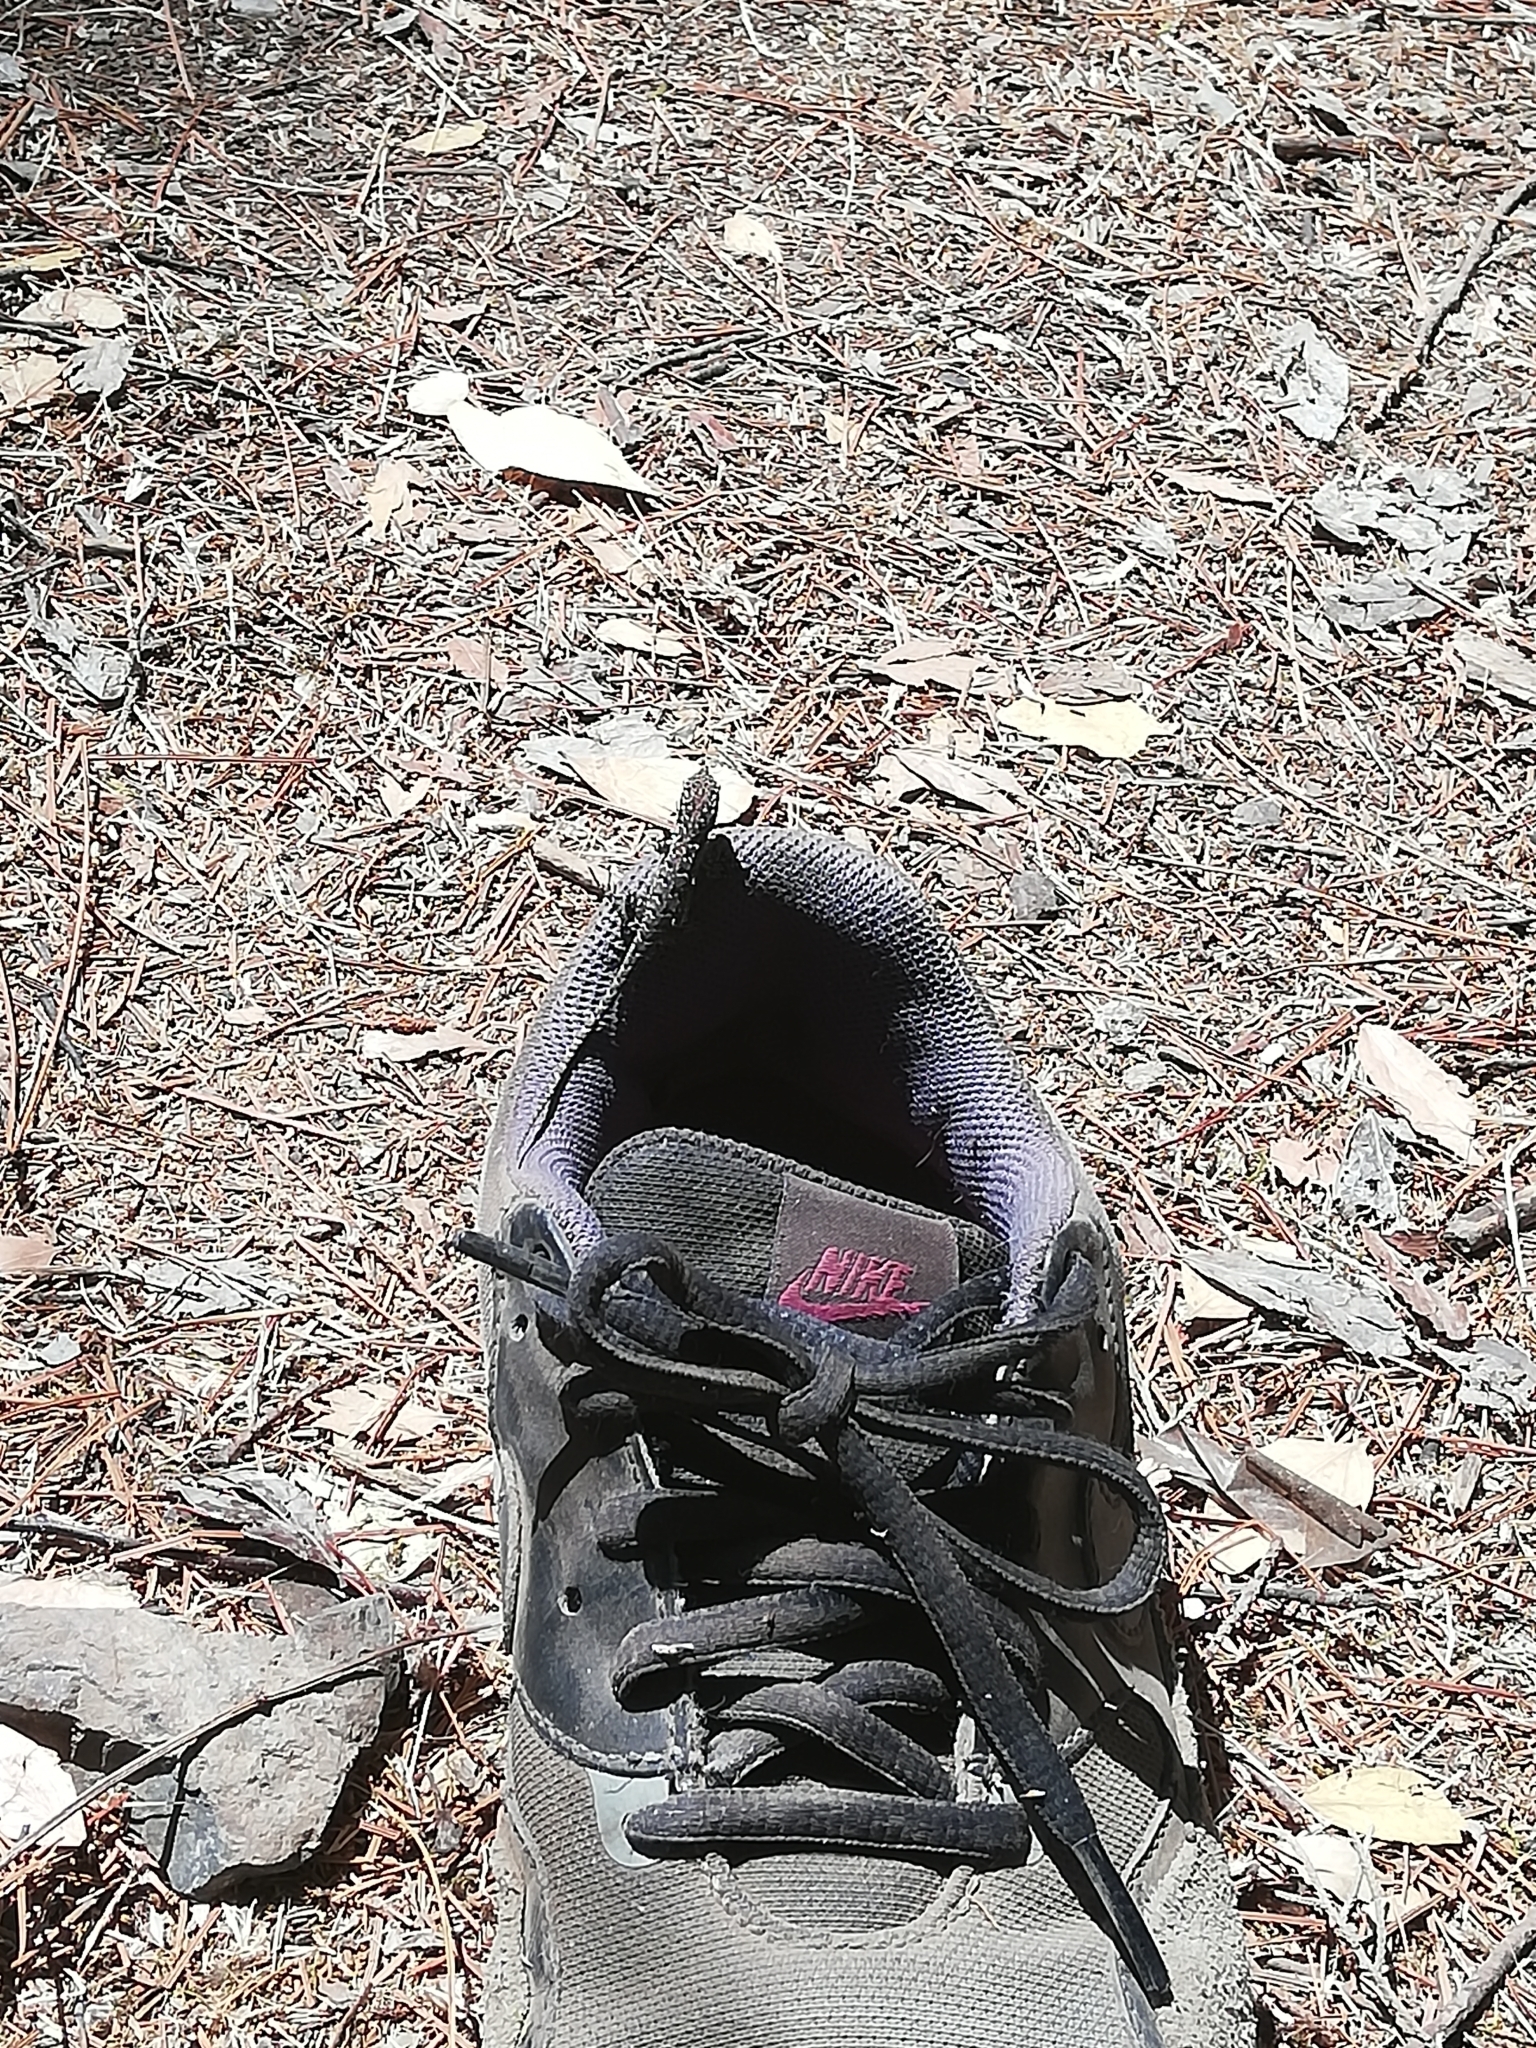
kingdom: Animalia
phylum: Chordata
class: Squamata
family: Liolaemidae
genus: Liolaemus
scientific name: Liolaemus tenuis
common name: Thin tree iguana
